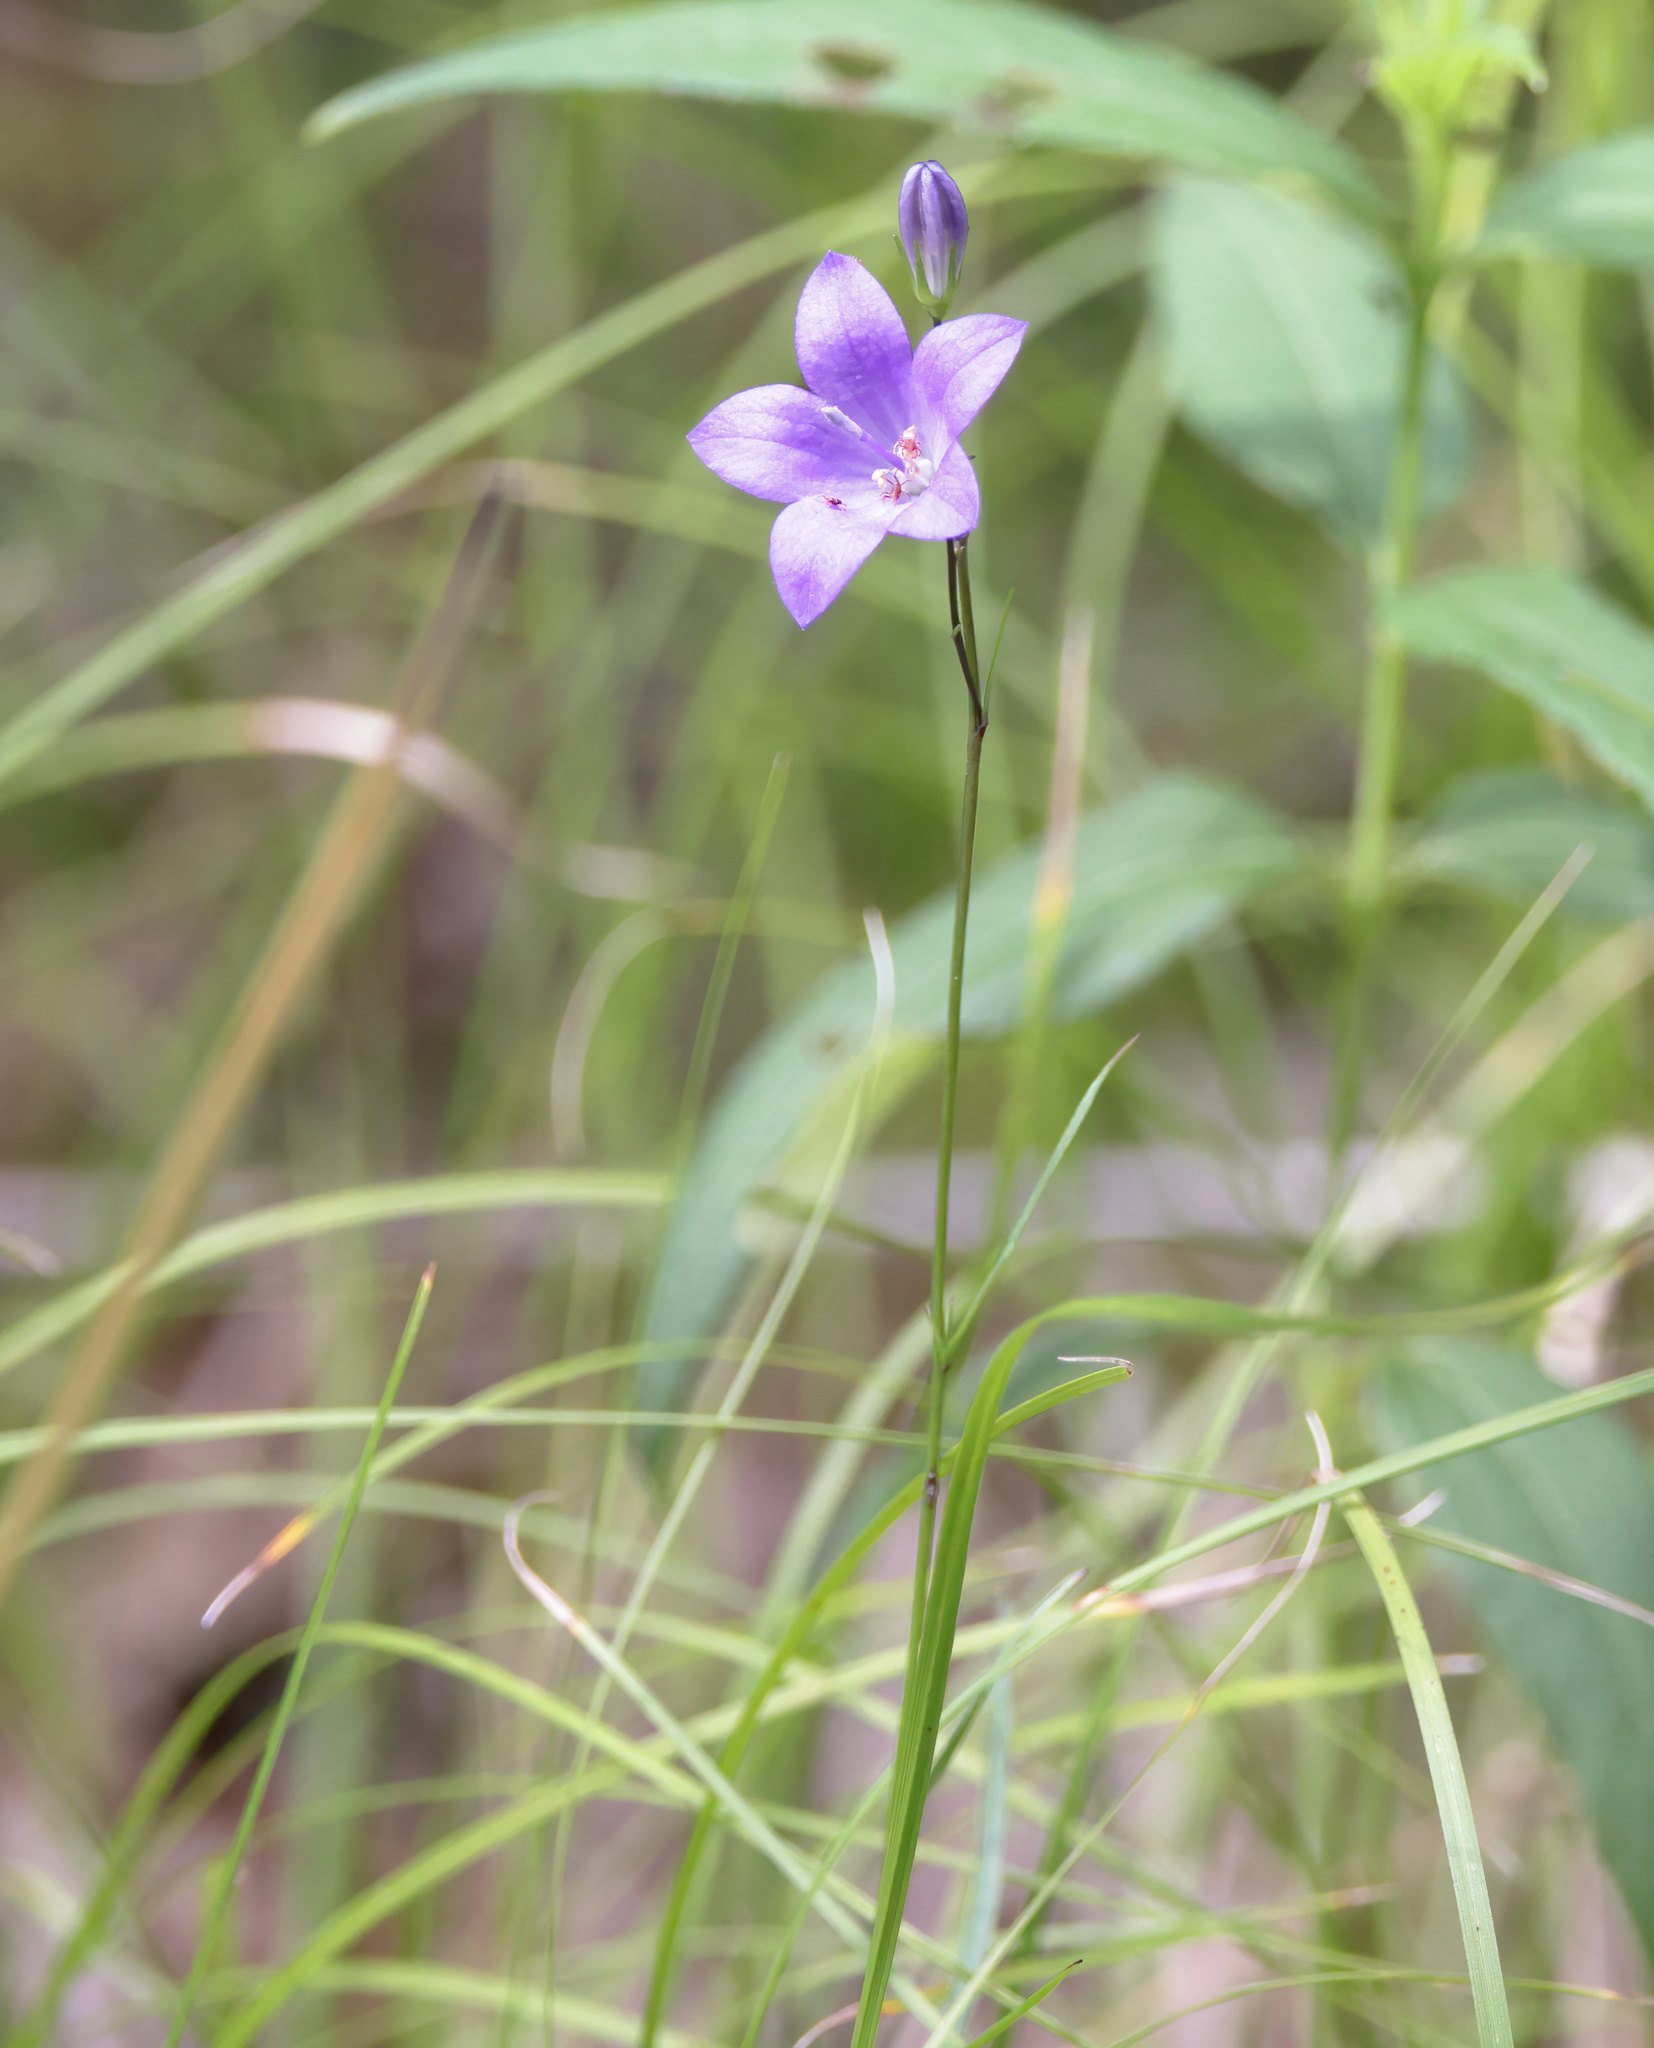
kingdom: Plantae
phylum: Tracheophyta
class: Magnoliopsida
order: Asterales
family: Campanulaceae
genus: Campanula
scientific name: Campanula intercedens
